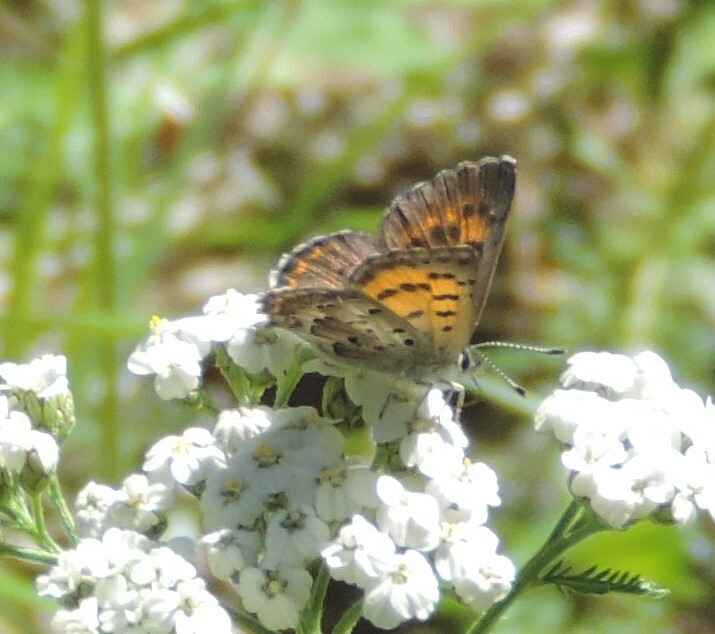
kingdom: Animalia
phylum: Arthropoda
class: Insecta
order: Lepidoptera
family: Lycaenidae
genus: Tharsalea
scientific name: Tharsalea mariposa
